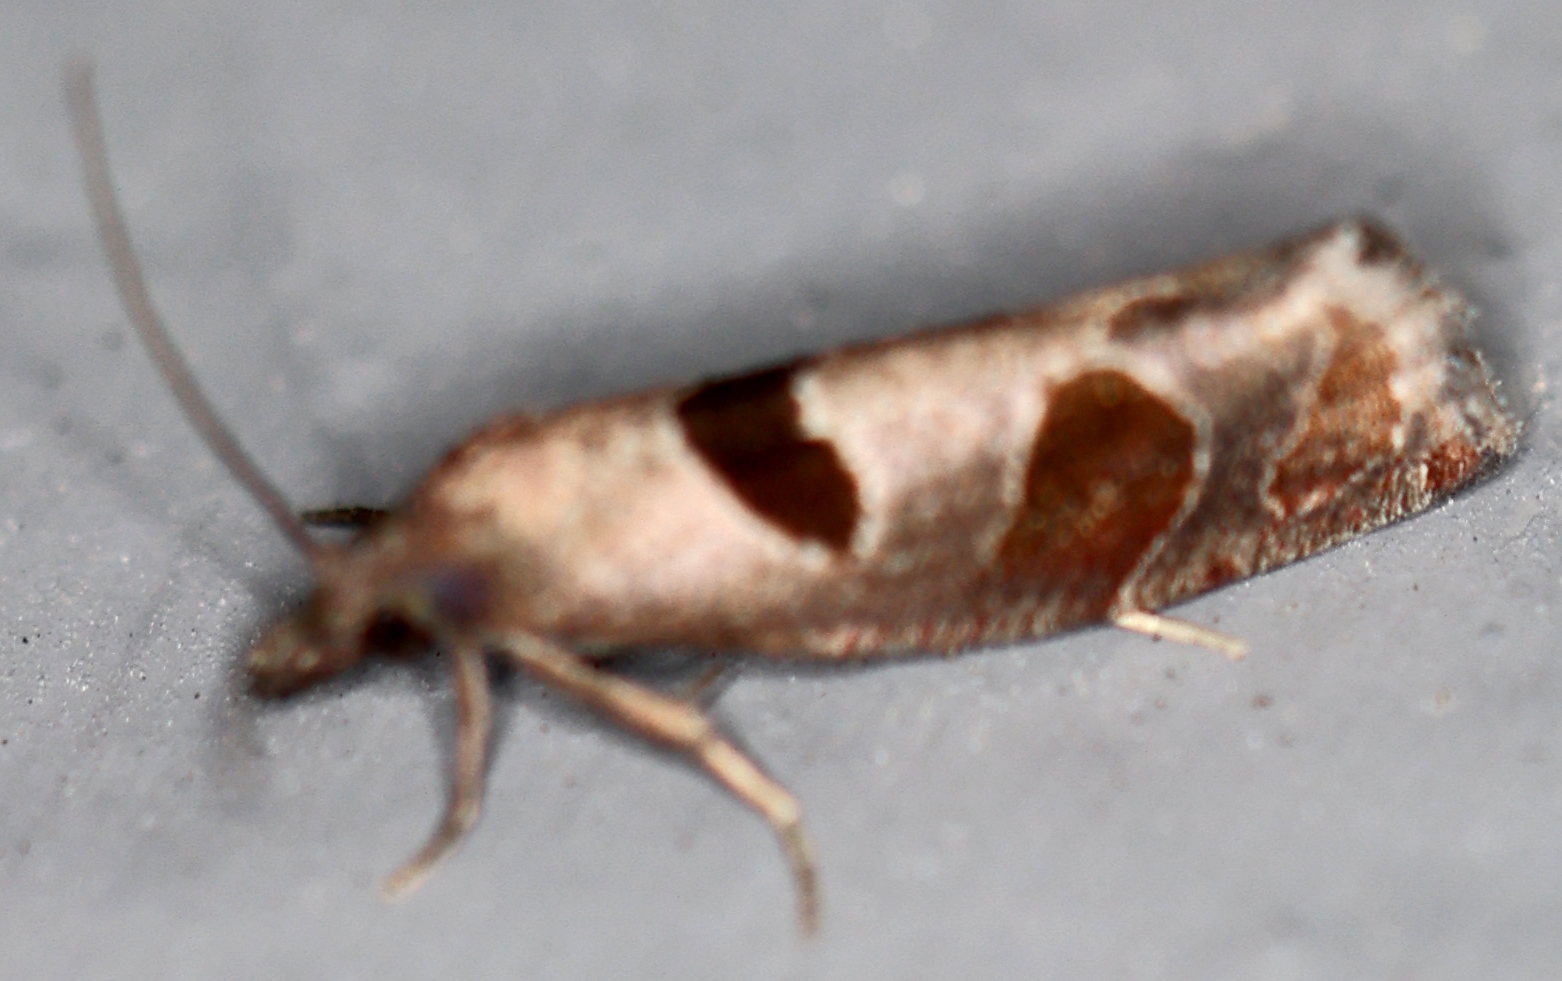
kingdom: Animalia
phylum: Arthropoda
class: Insecta
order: Lepidoptera
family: Tortricidae
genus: Pelochrista
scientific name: Pelochrista dorsisignatana
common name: Triangle-backed pelochrista moth
